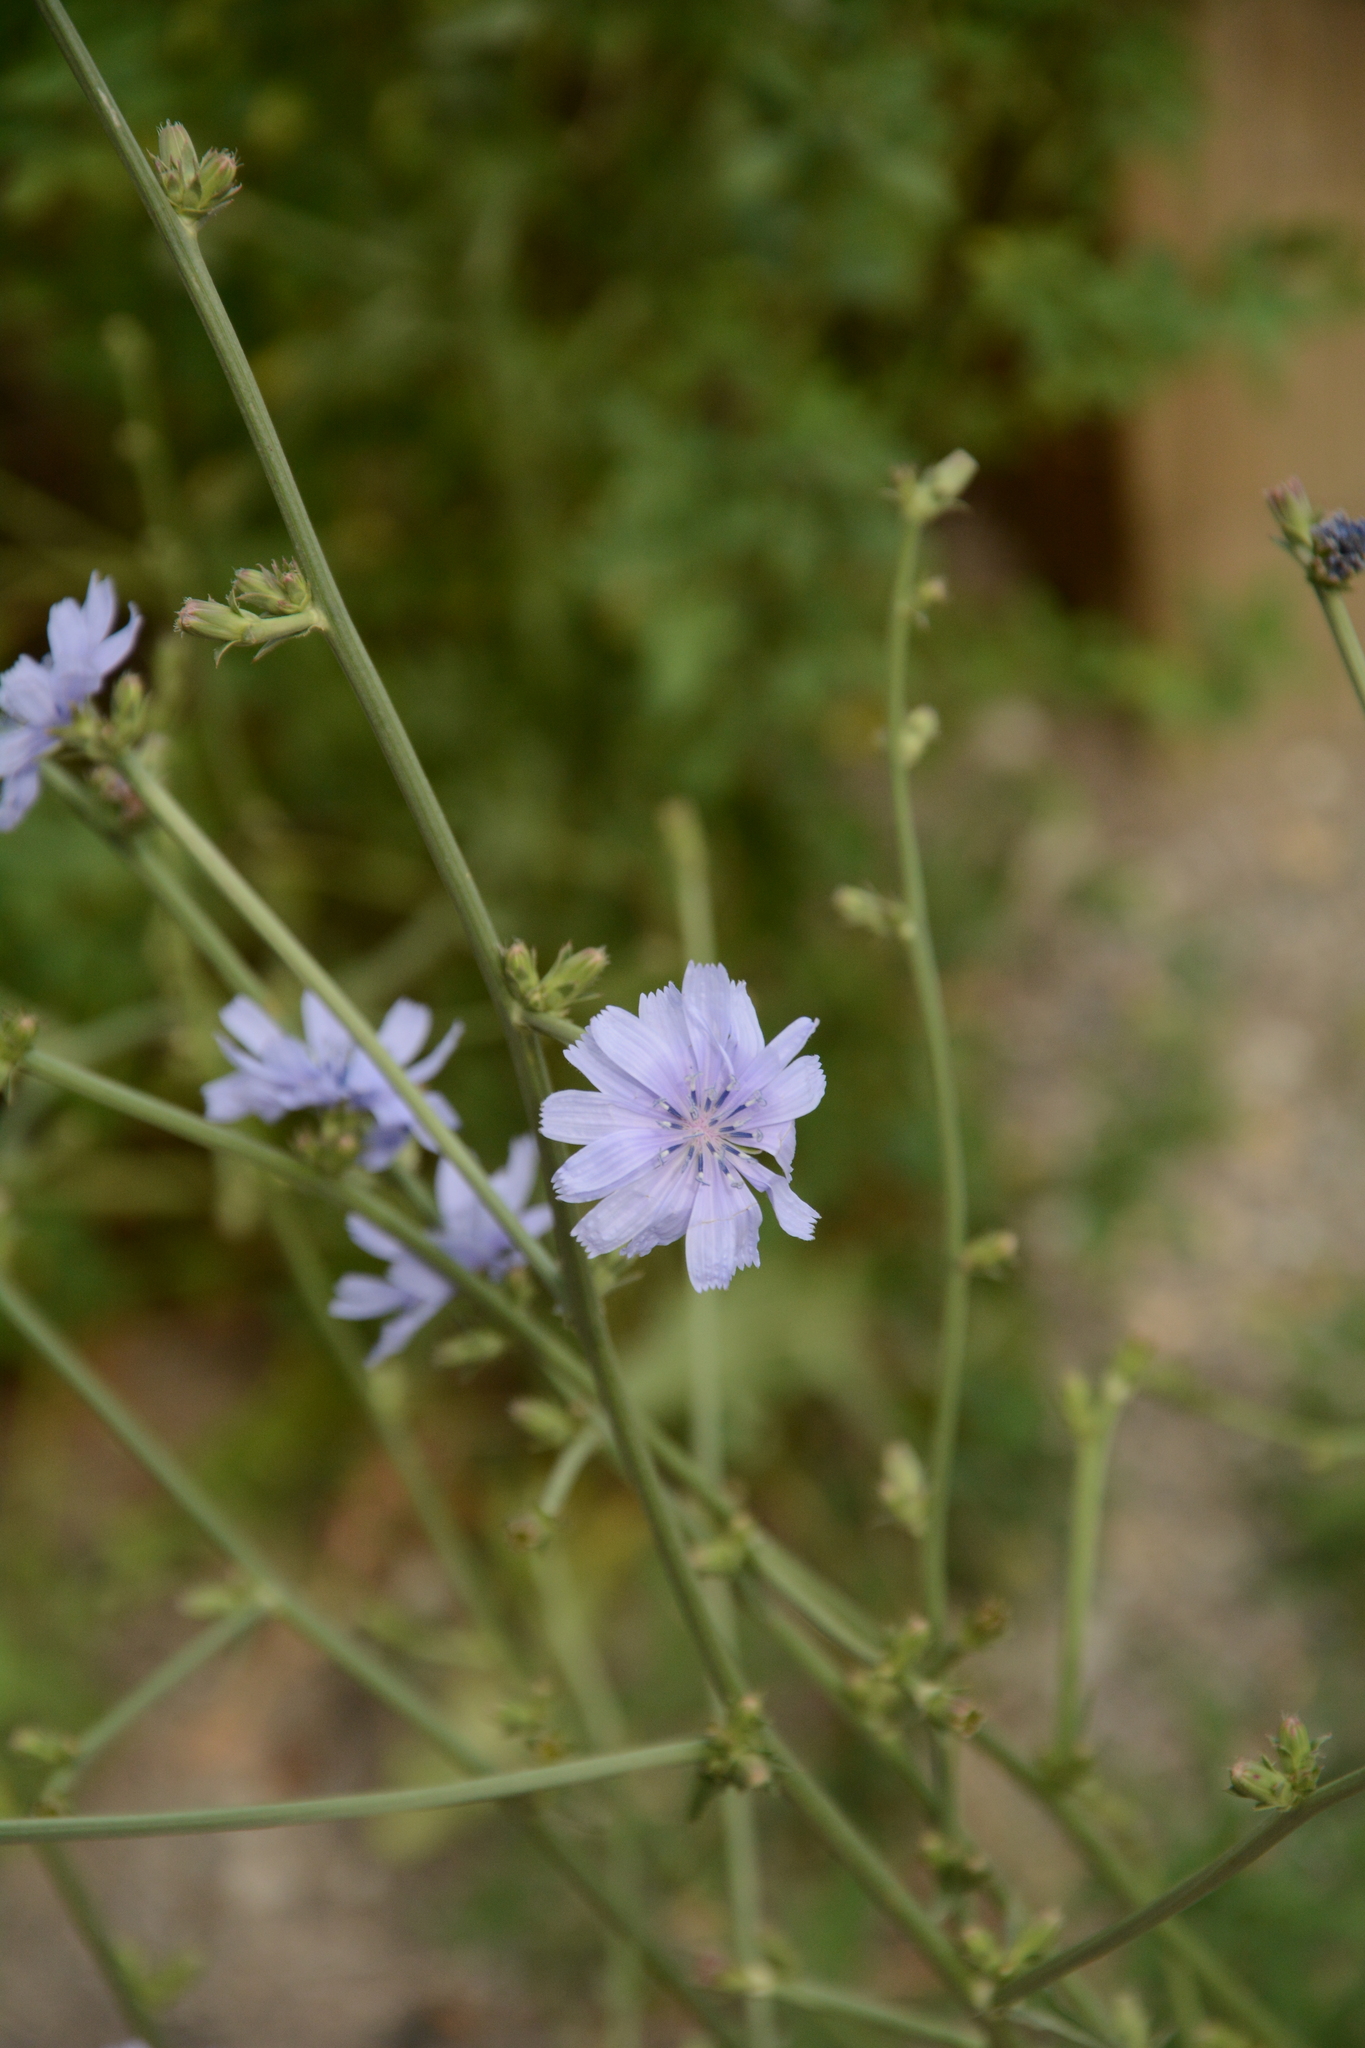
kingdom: Plantae
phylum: Tracheophyta
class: Magnoliopsida
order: Asterales
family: Asteraceae
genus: Cichorium
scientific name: Cichorium intybus
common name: Chicory
